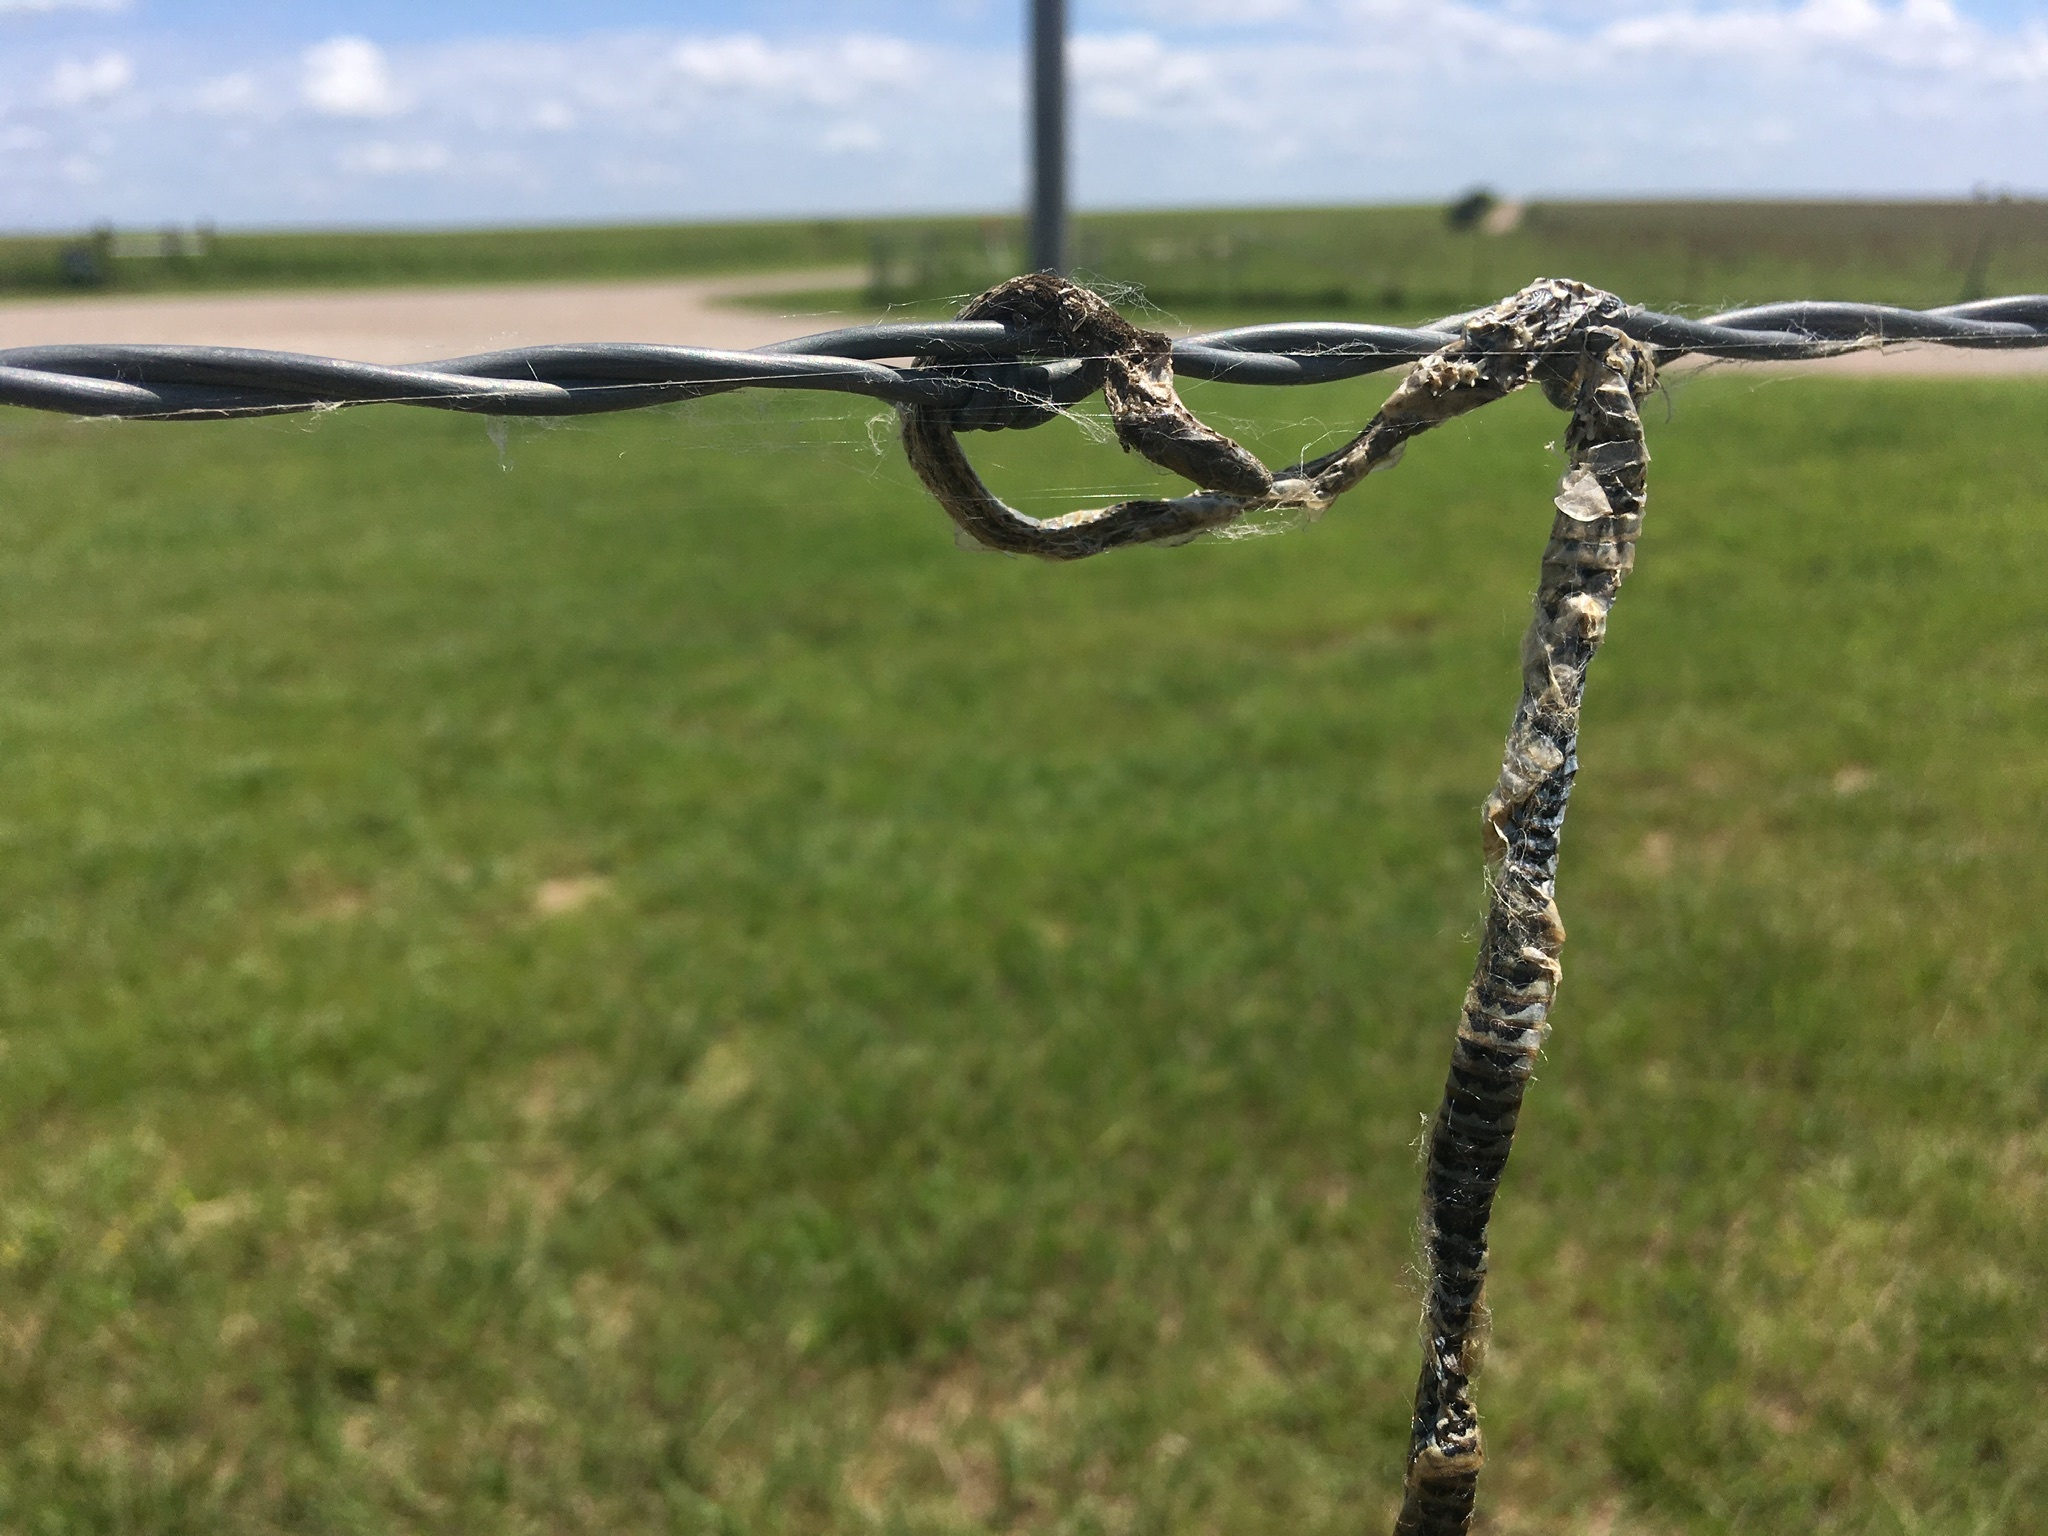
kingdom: Animalia
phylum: Chordata
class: Squamata
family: Colubridae
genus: Tropidoclonion
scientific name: Tropidoclonion lineatum
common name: Lined snake
